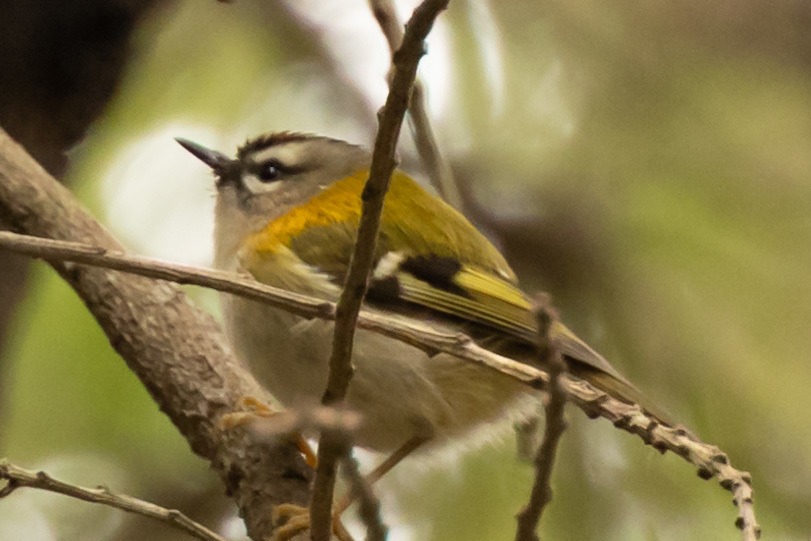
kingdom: Animalia
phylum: Chordata
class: Aves
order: Passeriformes
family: Regulidae
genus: Regulus
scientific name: Regulus madeirensis
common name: Madeira firecrest
